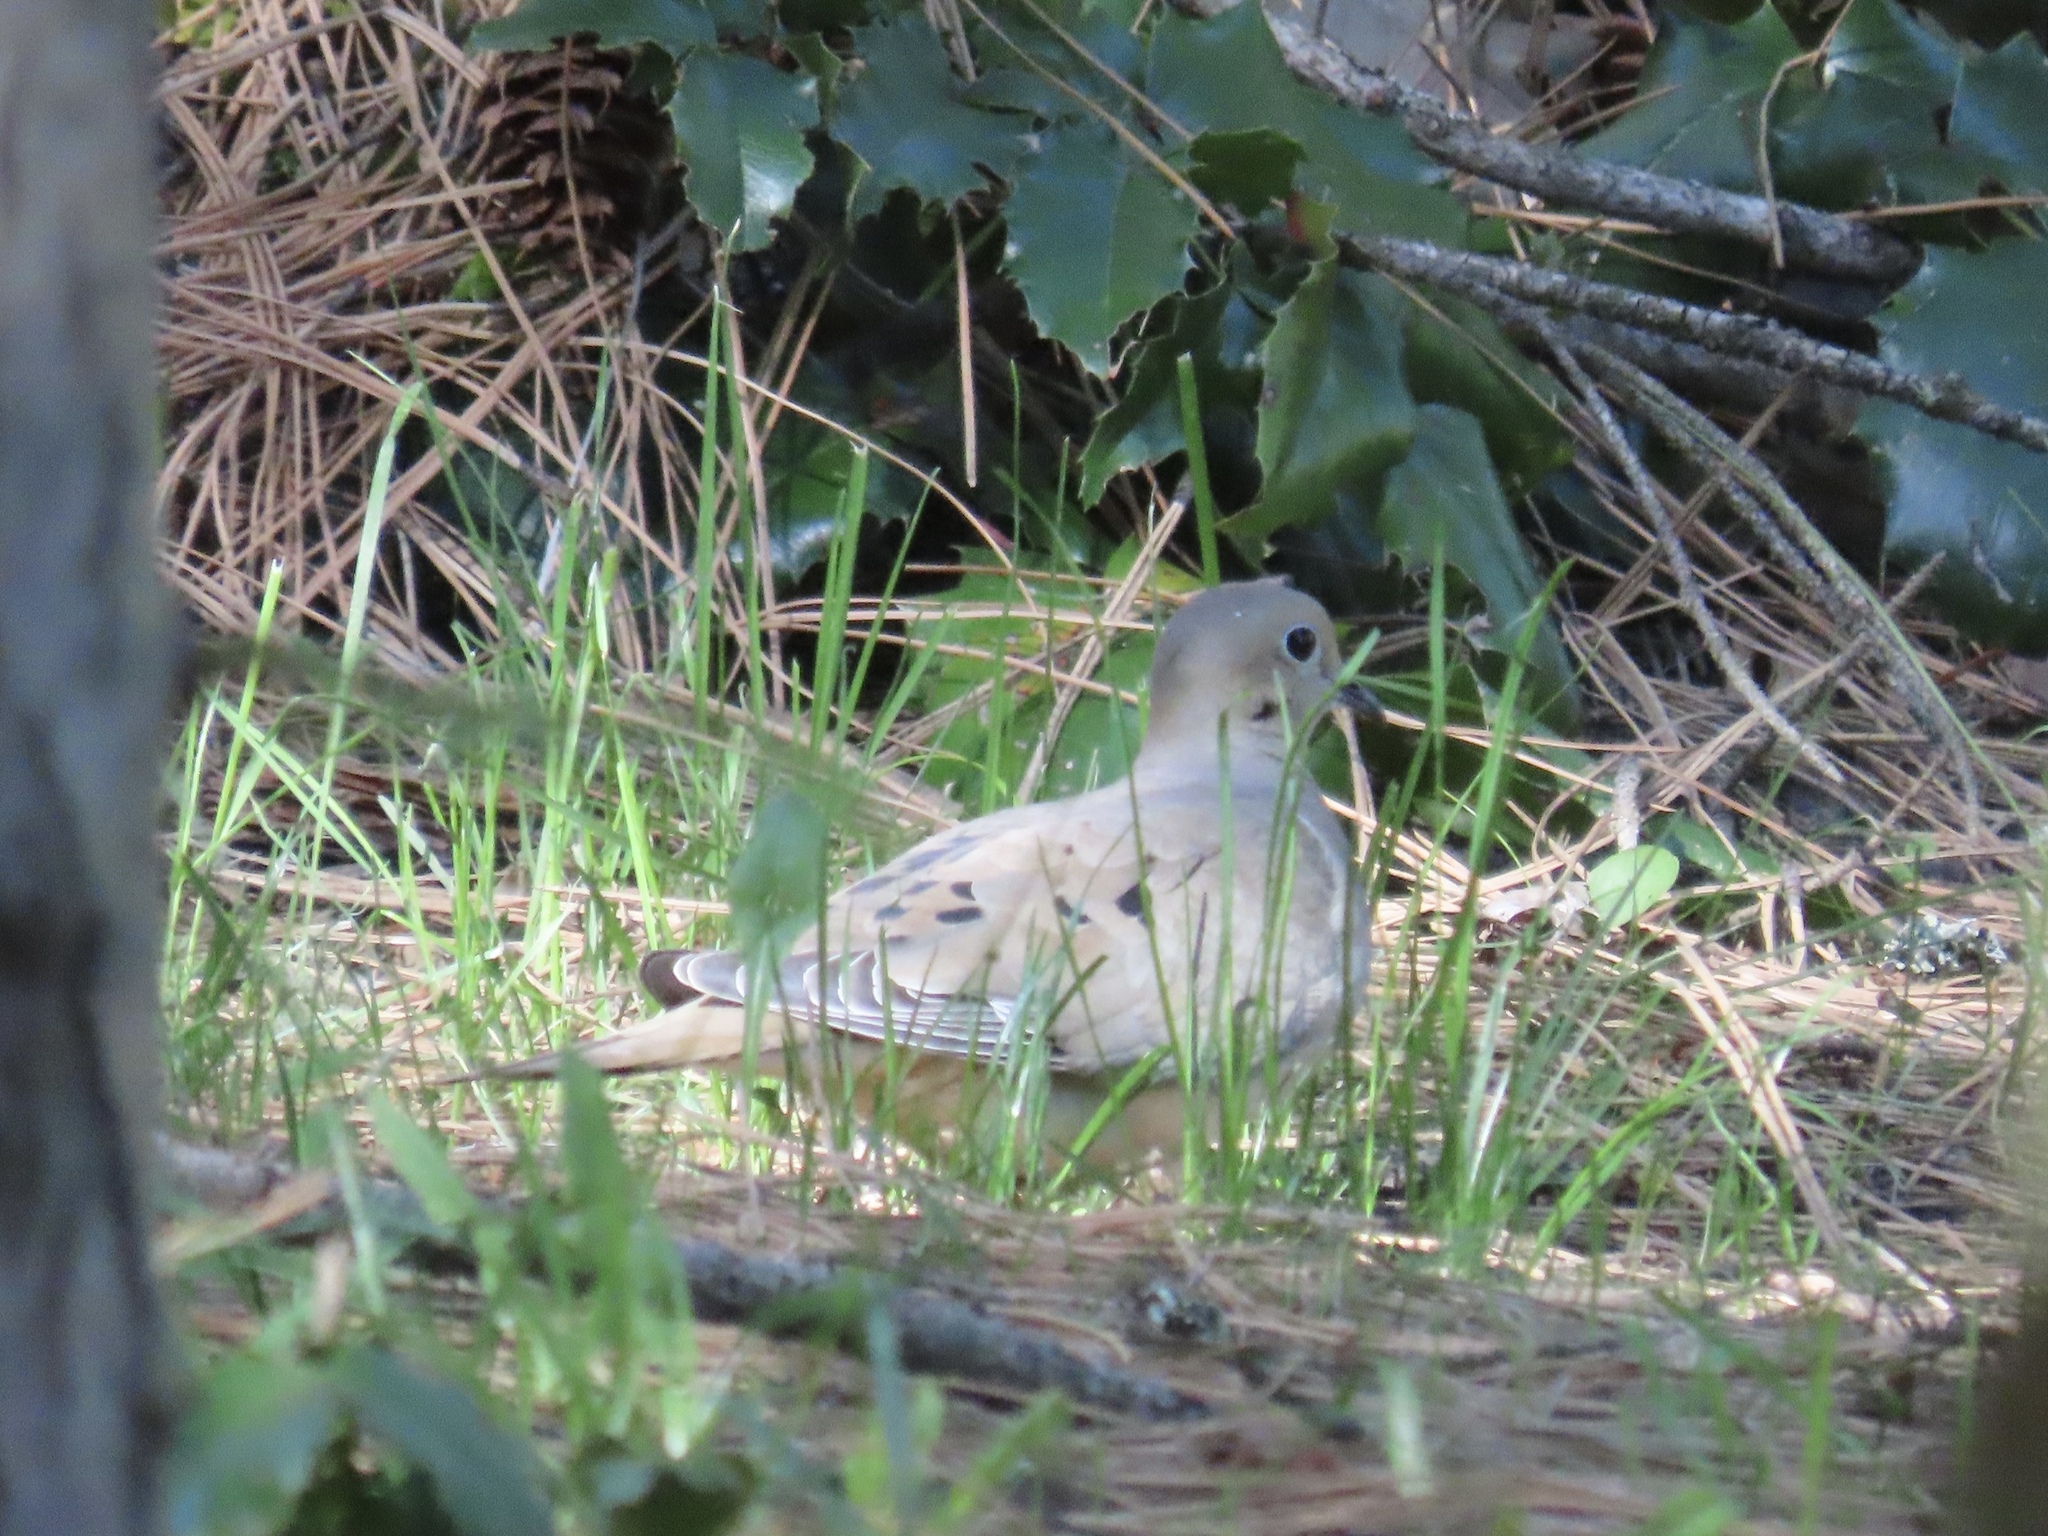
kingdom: Animalia
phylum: Chordata
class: Aves
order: Columbiformes
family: Columbidae
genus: Zenaida
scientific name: Zenaida macroura
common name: Mourning dove
